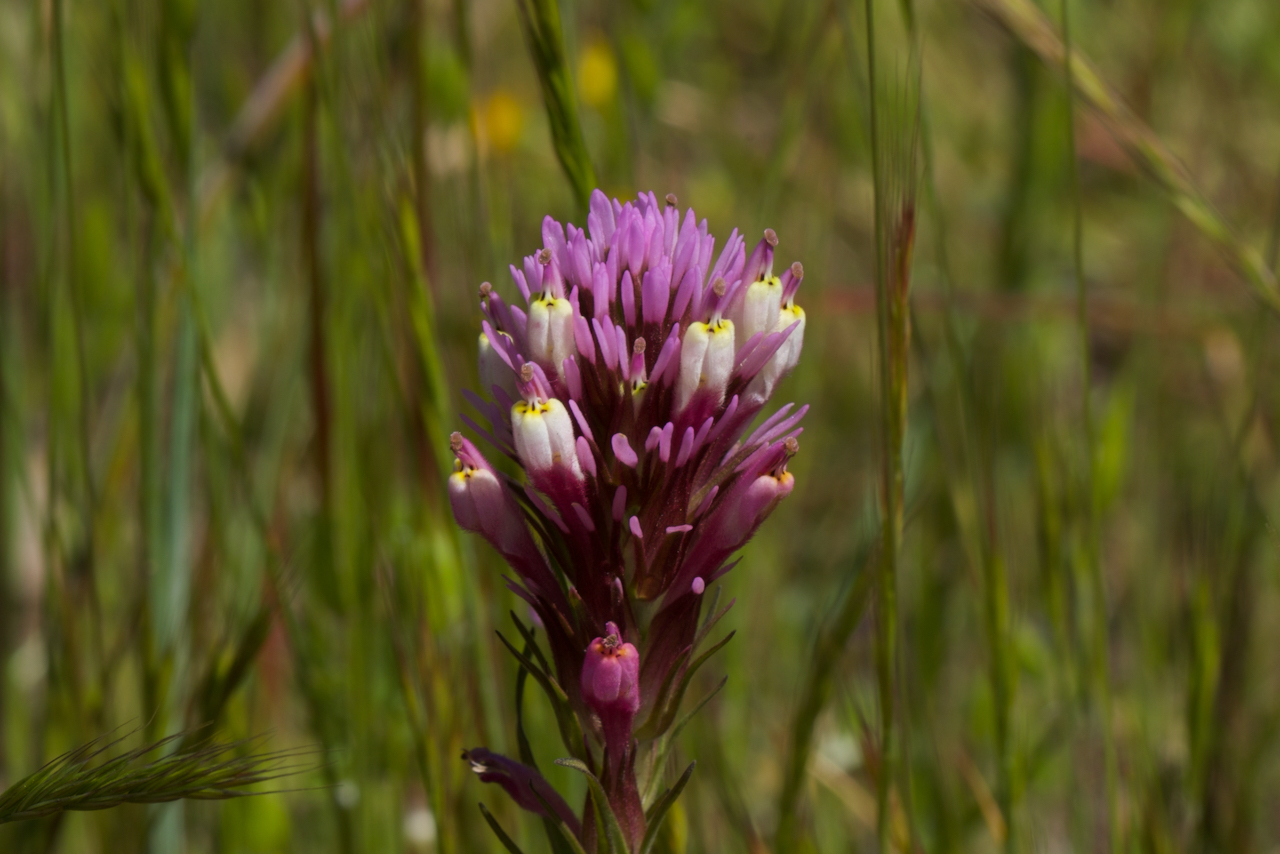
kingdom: Plantae
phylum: Tracheophyta
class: Magnoliopsida
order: Lamiales
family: Orobanchaceae
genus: Castilleja
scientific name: Castilleja densiflora
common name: Dense-flower indian paintbrush
